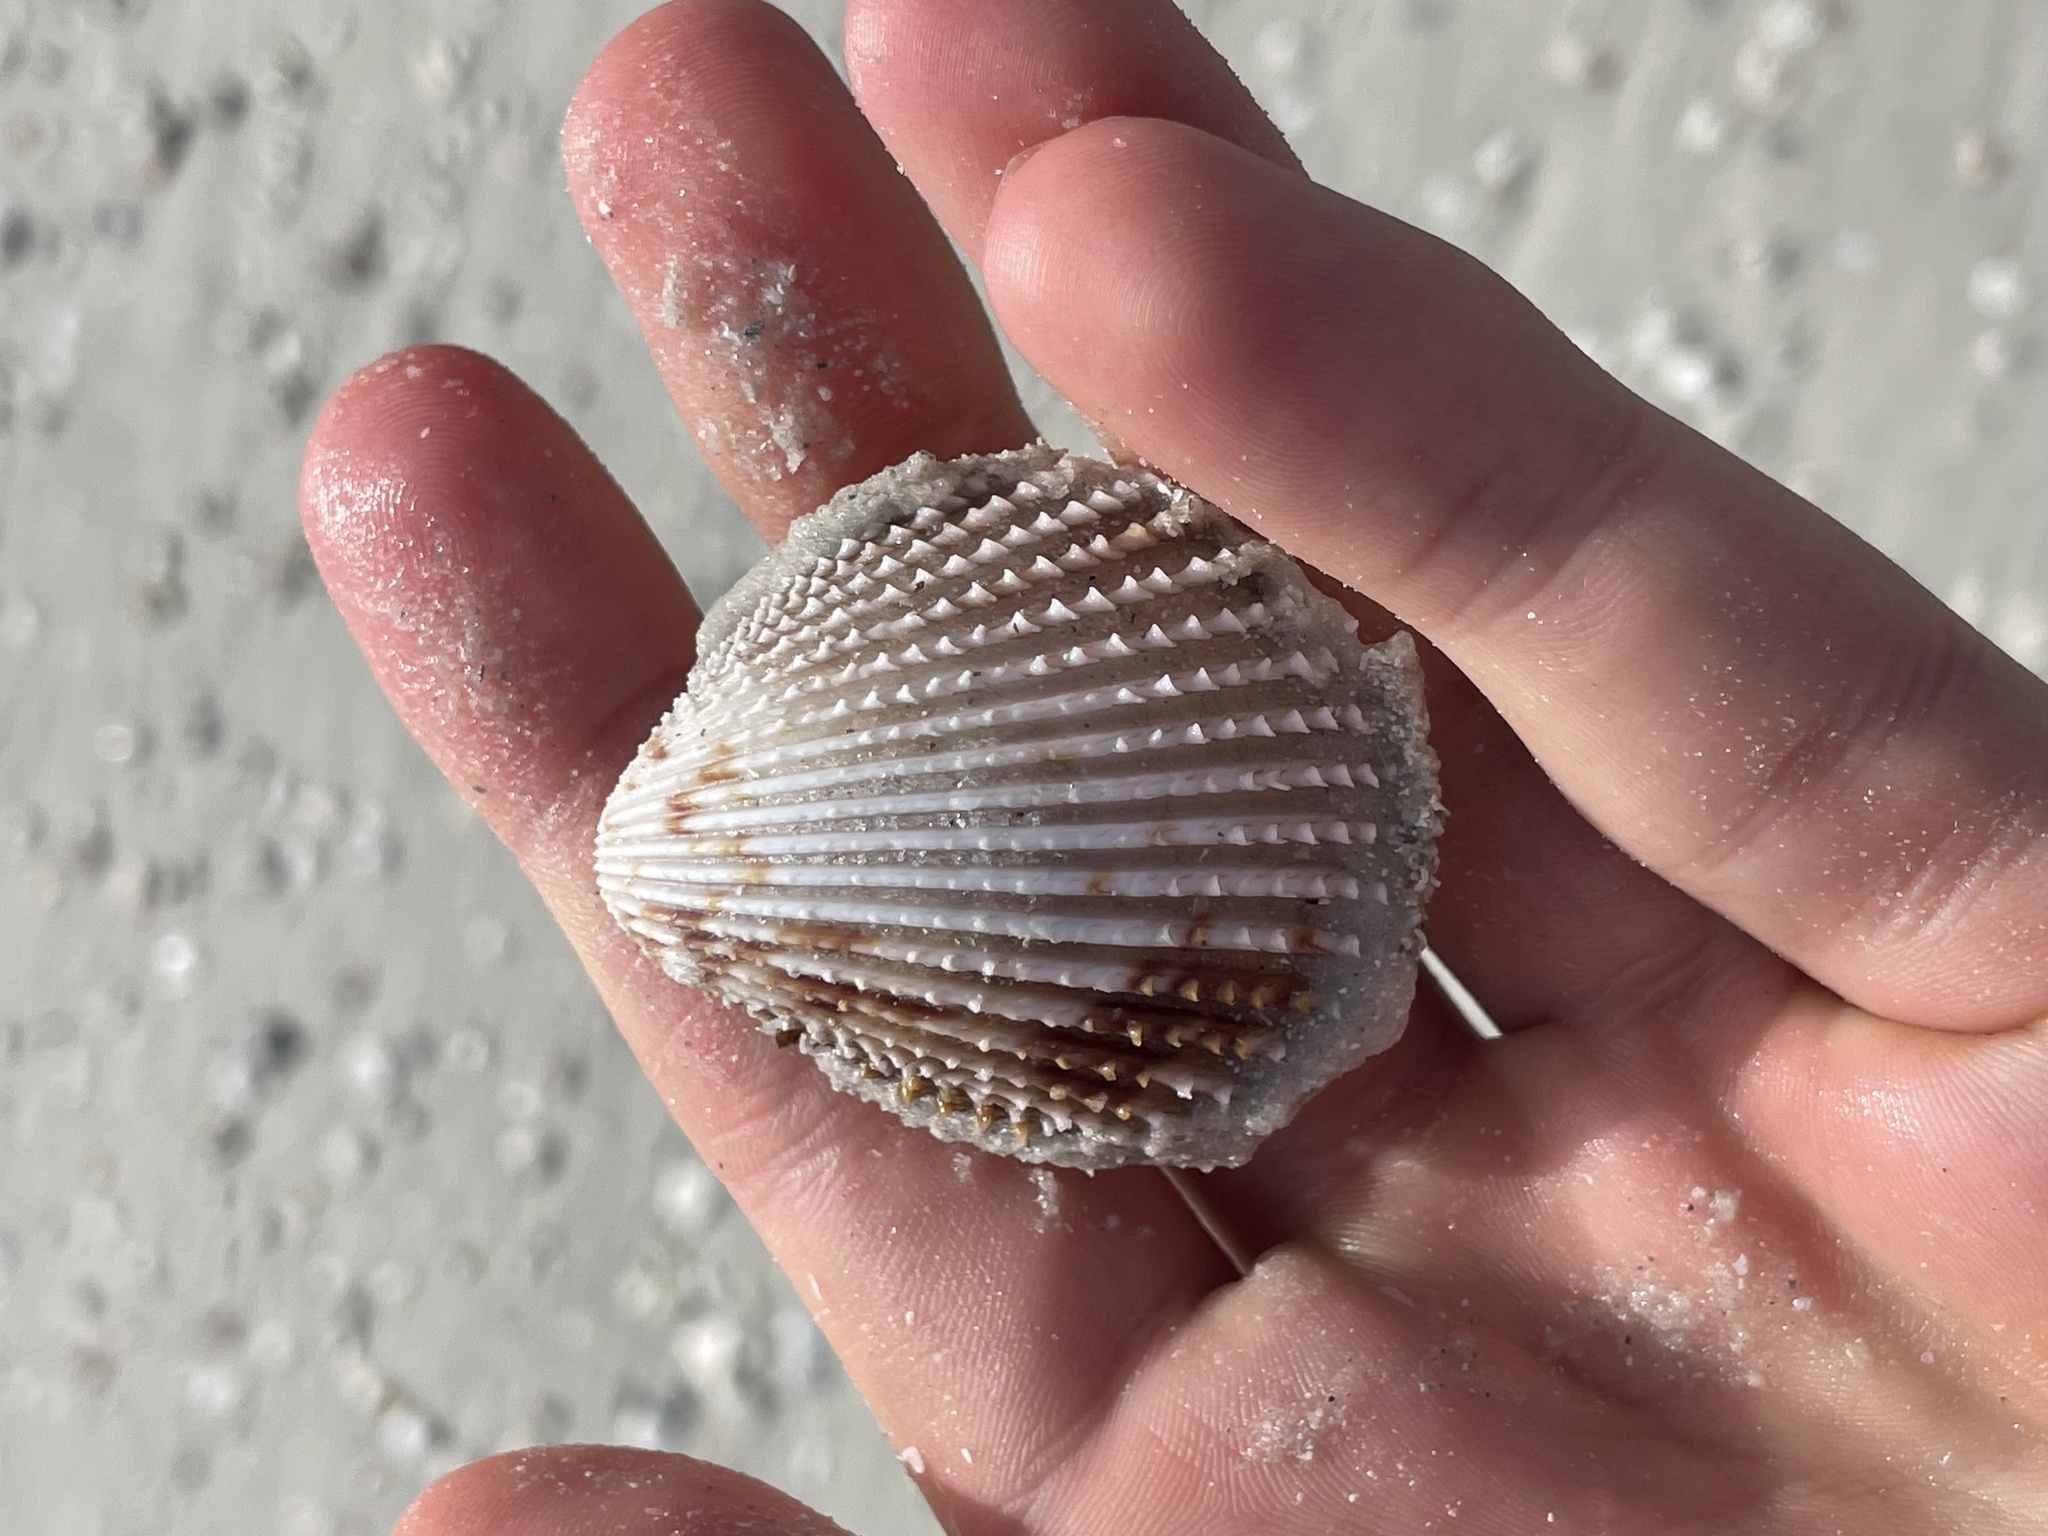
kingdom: Animalia
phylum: Mollusca
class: Bivalvia
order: Cardiida
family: Cardiidae
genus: Trachycardium
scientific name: Trachycardium egmontianum
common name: Florida pricklycockle
